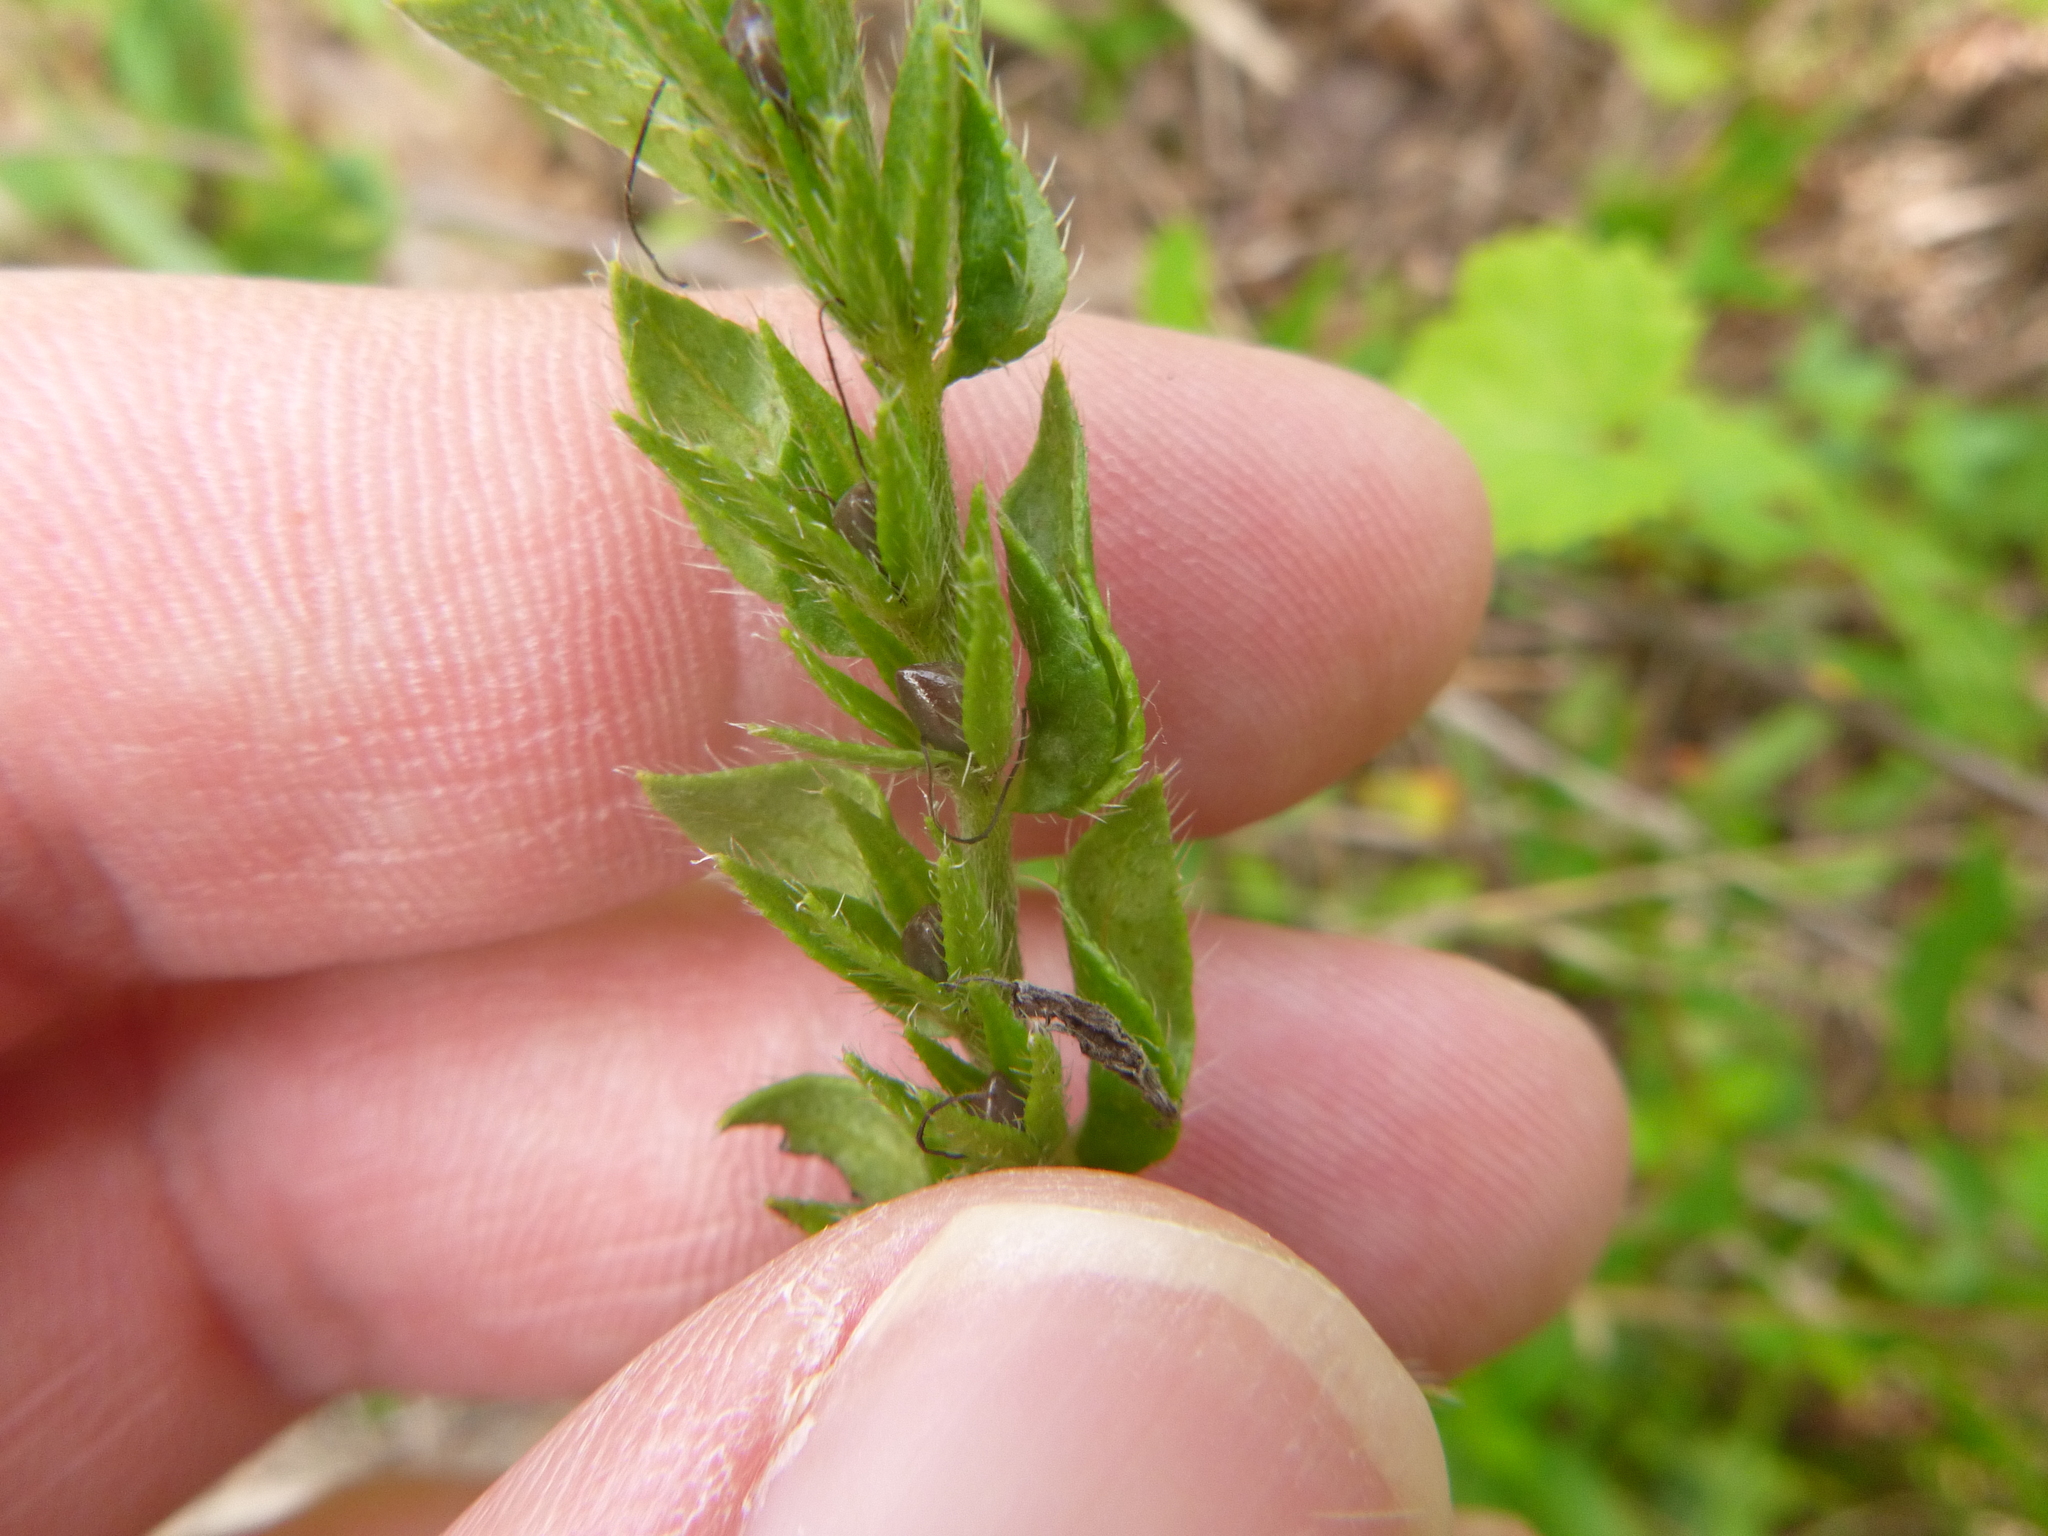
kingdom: Plantae
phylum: Tracheophyta
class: Magnoliopsida
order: Boraginales
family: Boraginaceae
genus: Lithospermum
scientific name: Lithospermum virginianum
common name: Eastern false gromwell
